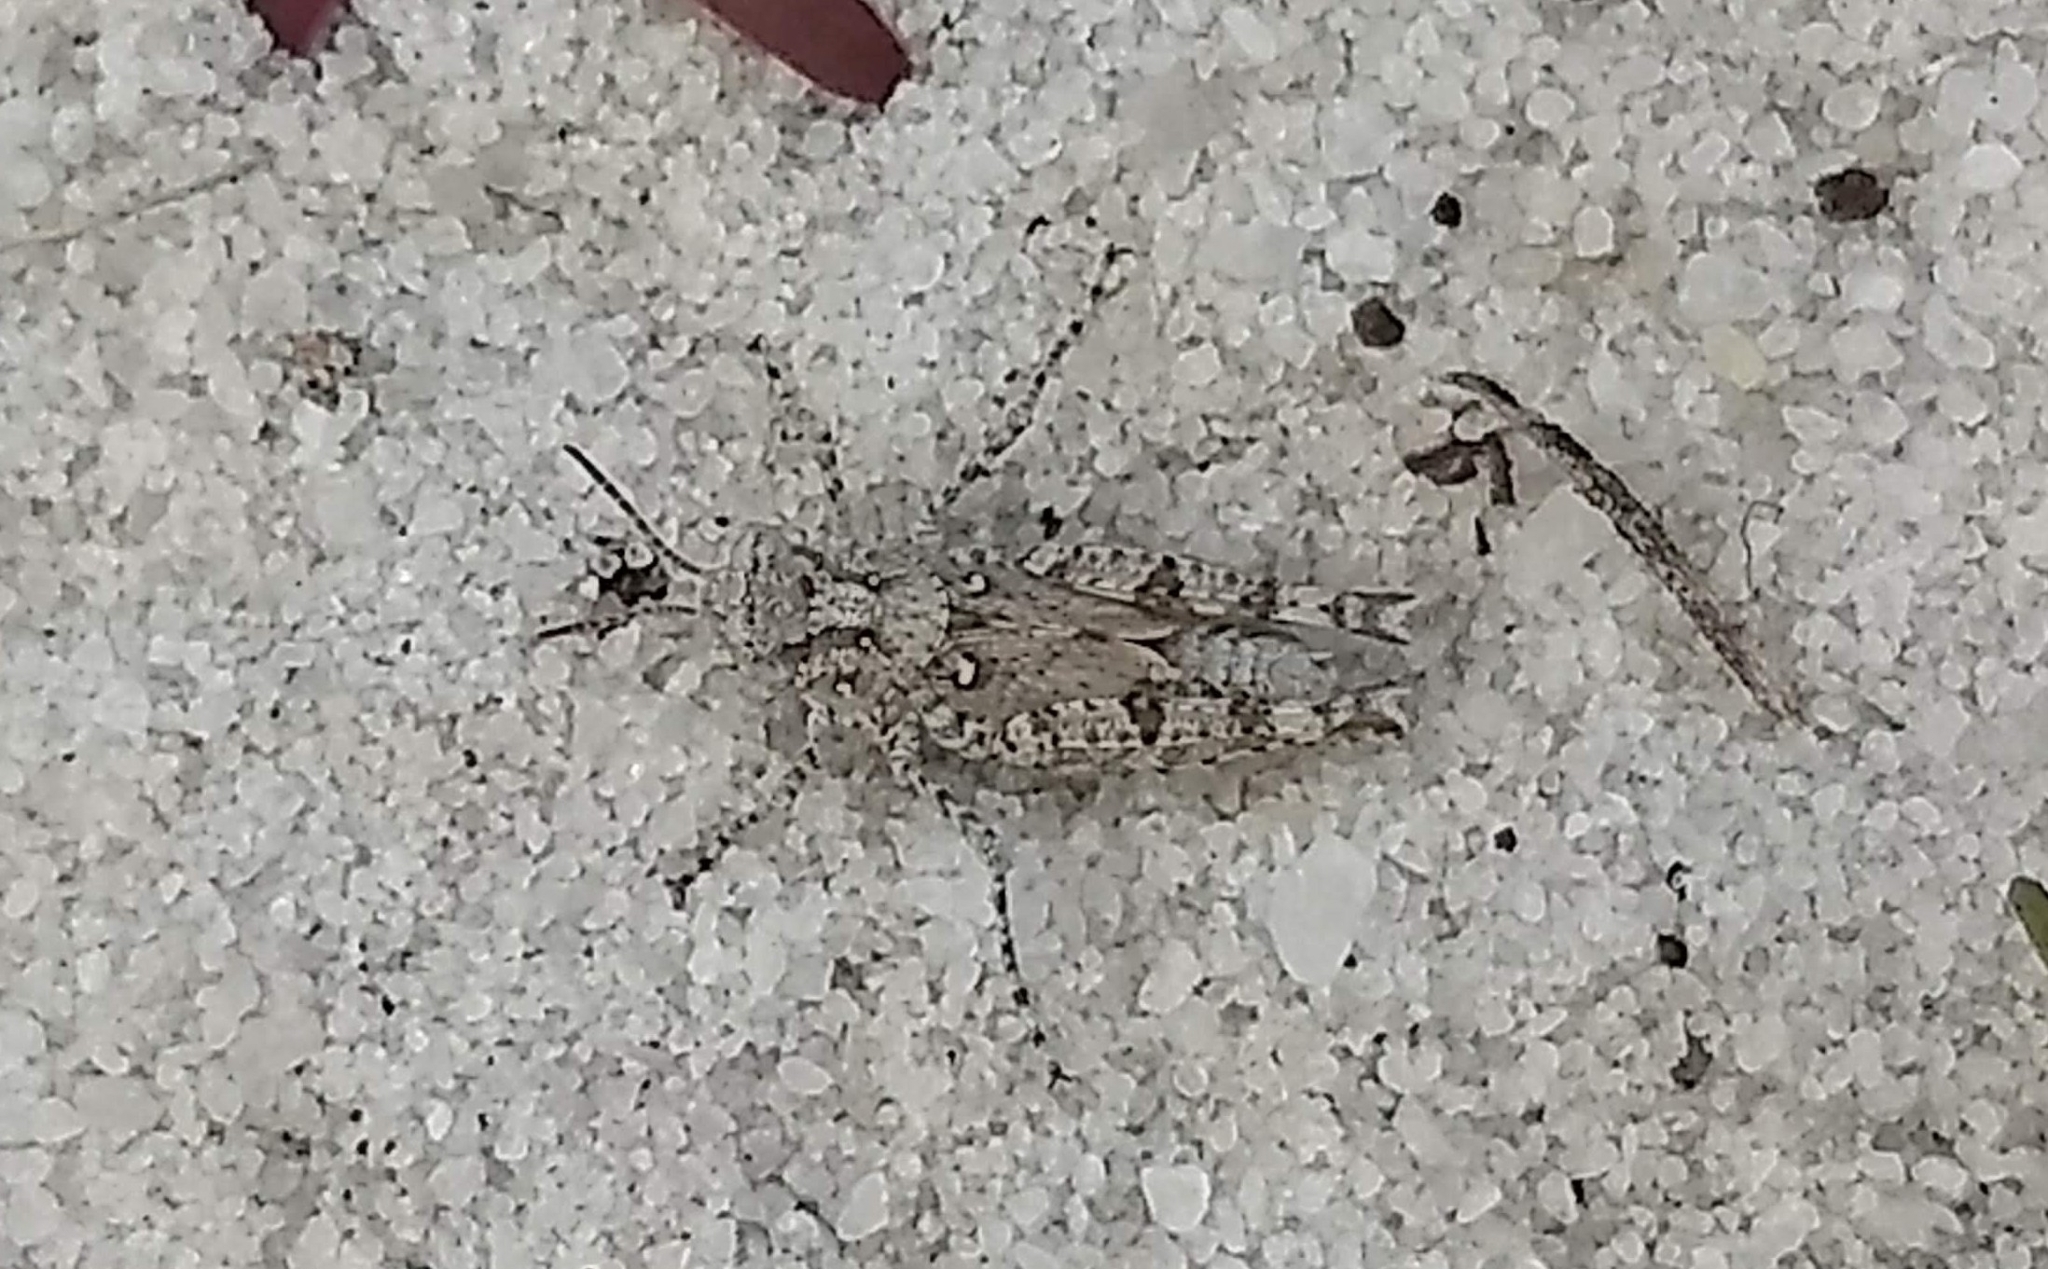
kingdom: Animalia
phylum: Arthropoda
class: Insecta
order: Orthoptera
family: Acrididae
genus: Acrotylus
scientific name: Acrotylus humbertianus
